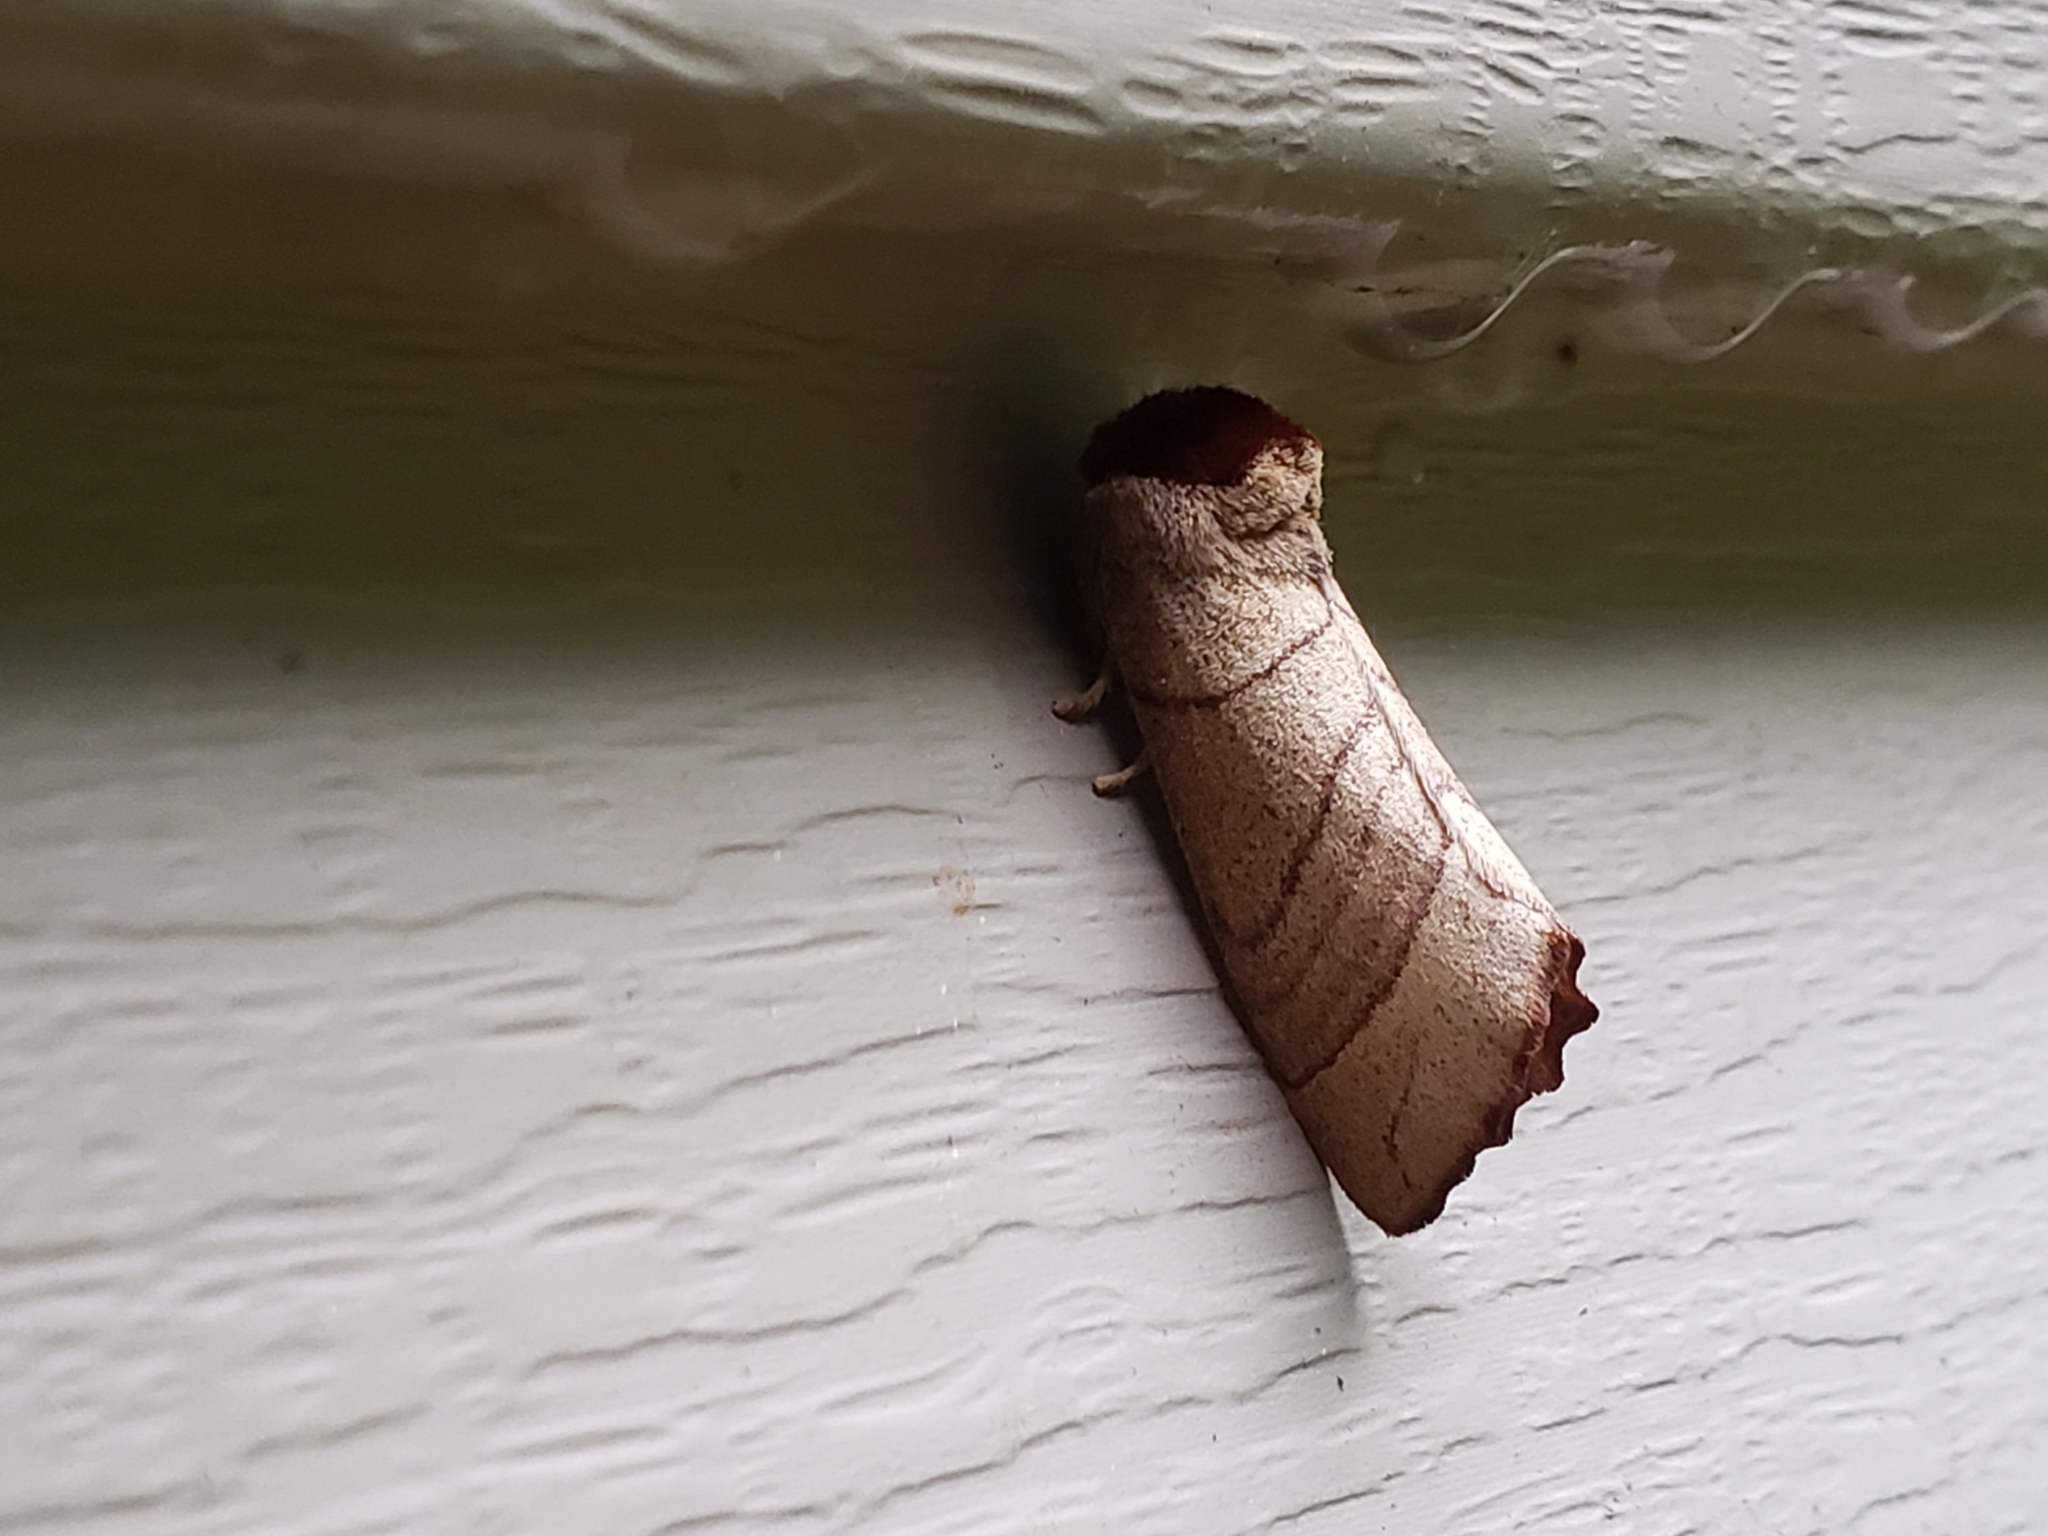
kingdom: Animalia
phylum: Arthropoda
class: Insecta
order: Lepidoptera
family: Notodontidae
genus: Datana
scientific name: Datana ministra
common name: Yellow-necked caterpillar moth
